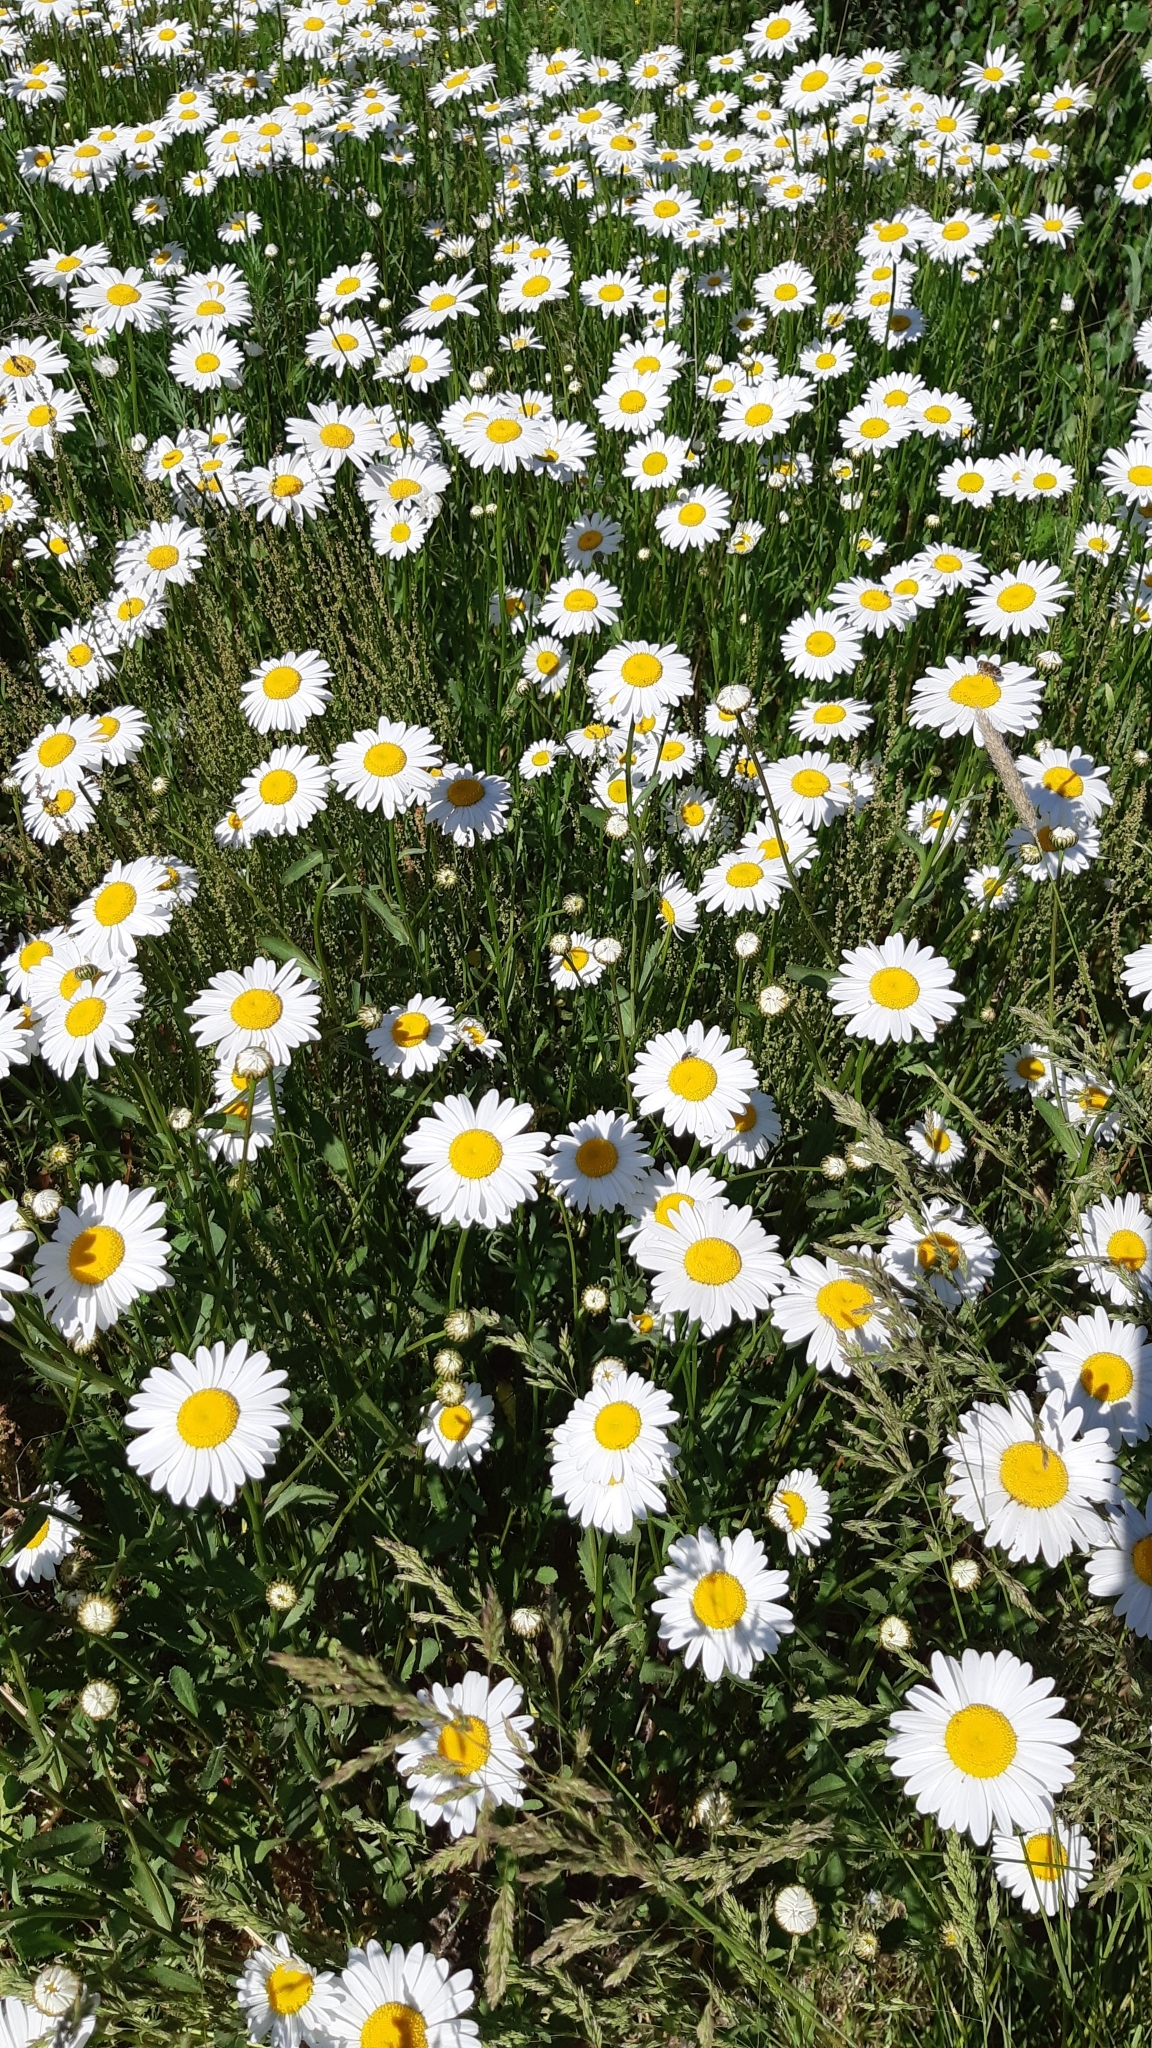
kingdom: Plantae
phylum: Tracheophyta
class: Magnoliopsida
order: Asterales
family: Asteraceae
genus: Leucanthemum
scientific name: Leucanthemum vulgare
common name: Oxeye daisy
